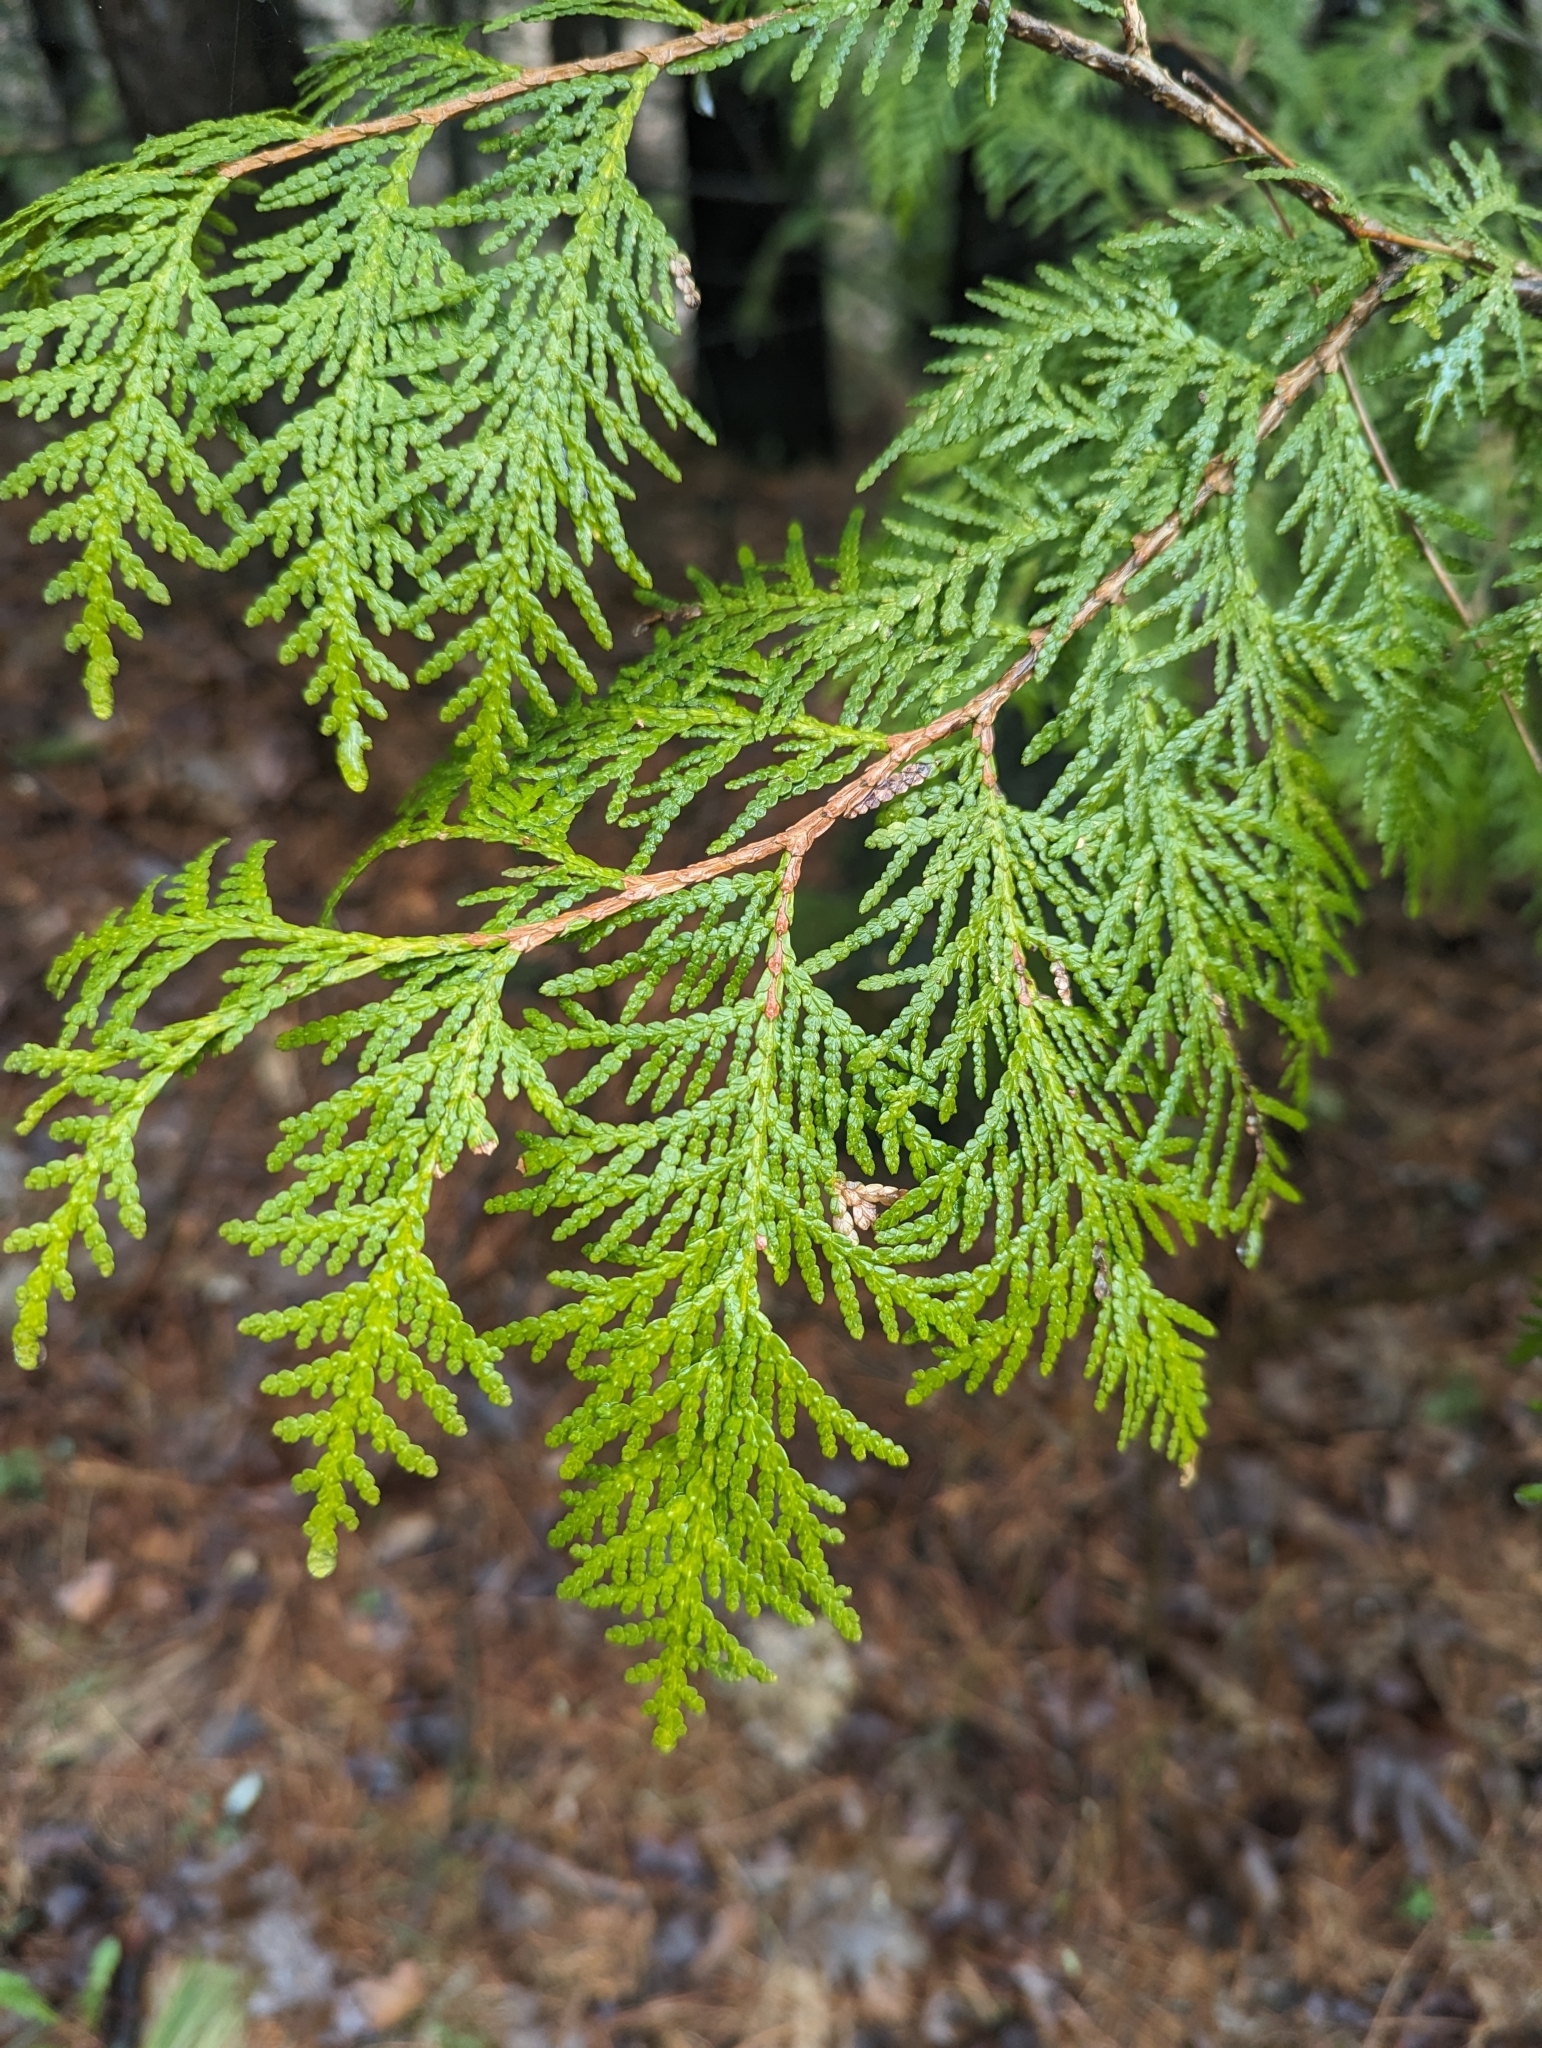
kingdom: Plantae
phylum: Tracheophyta
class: Pinopsida
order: Pinales
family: Cupressaceae
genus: Thuja
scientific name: Thuja occidentalis
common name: Northern white-cedar
